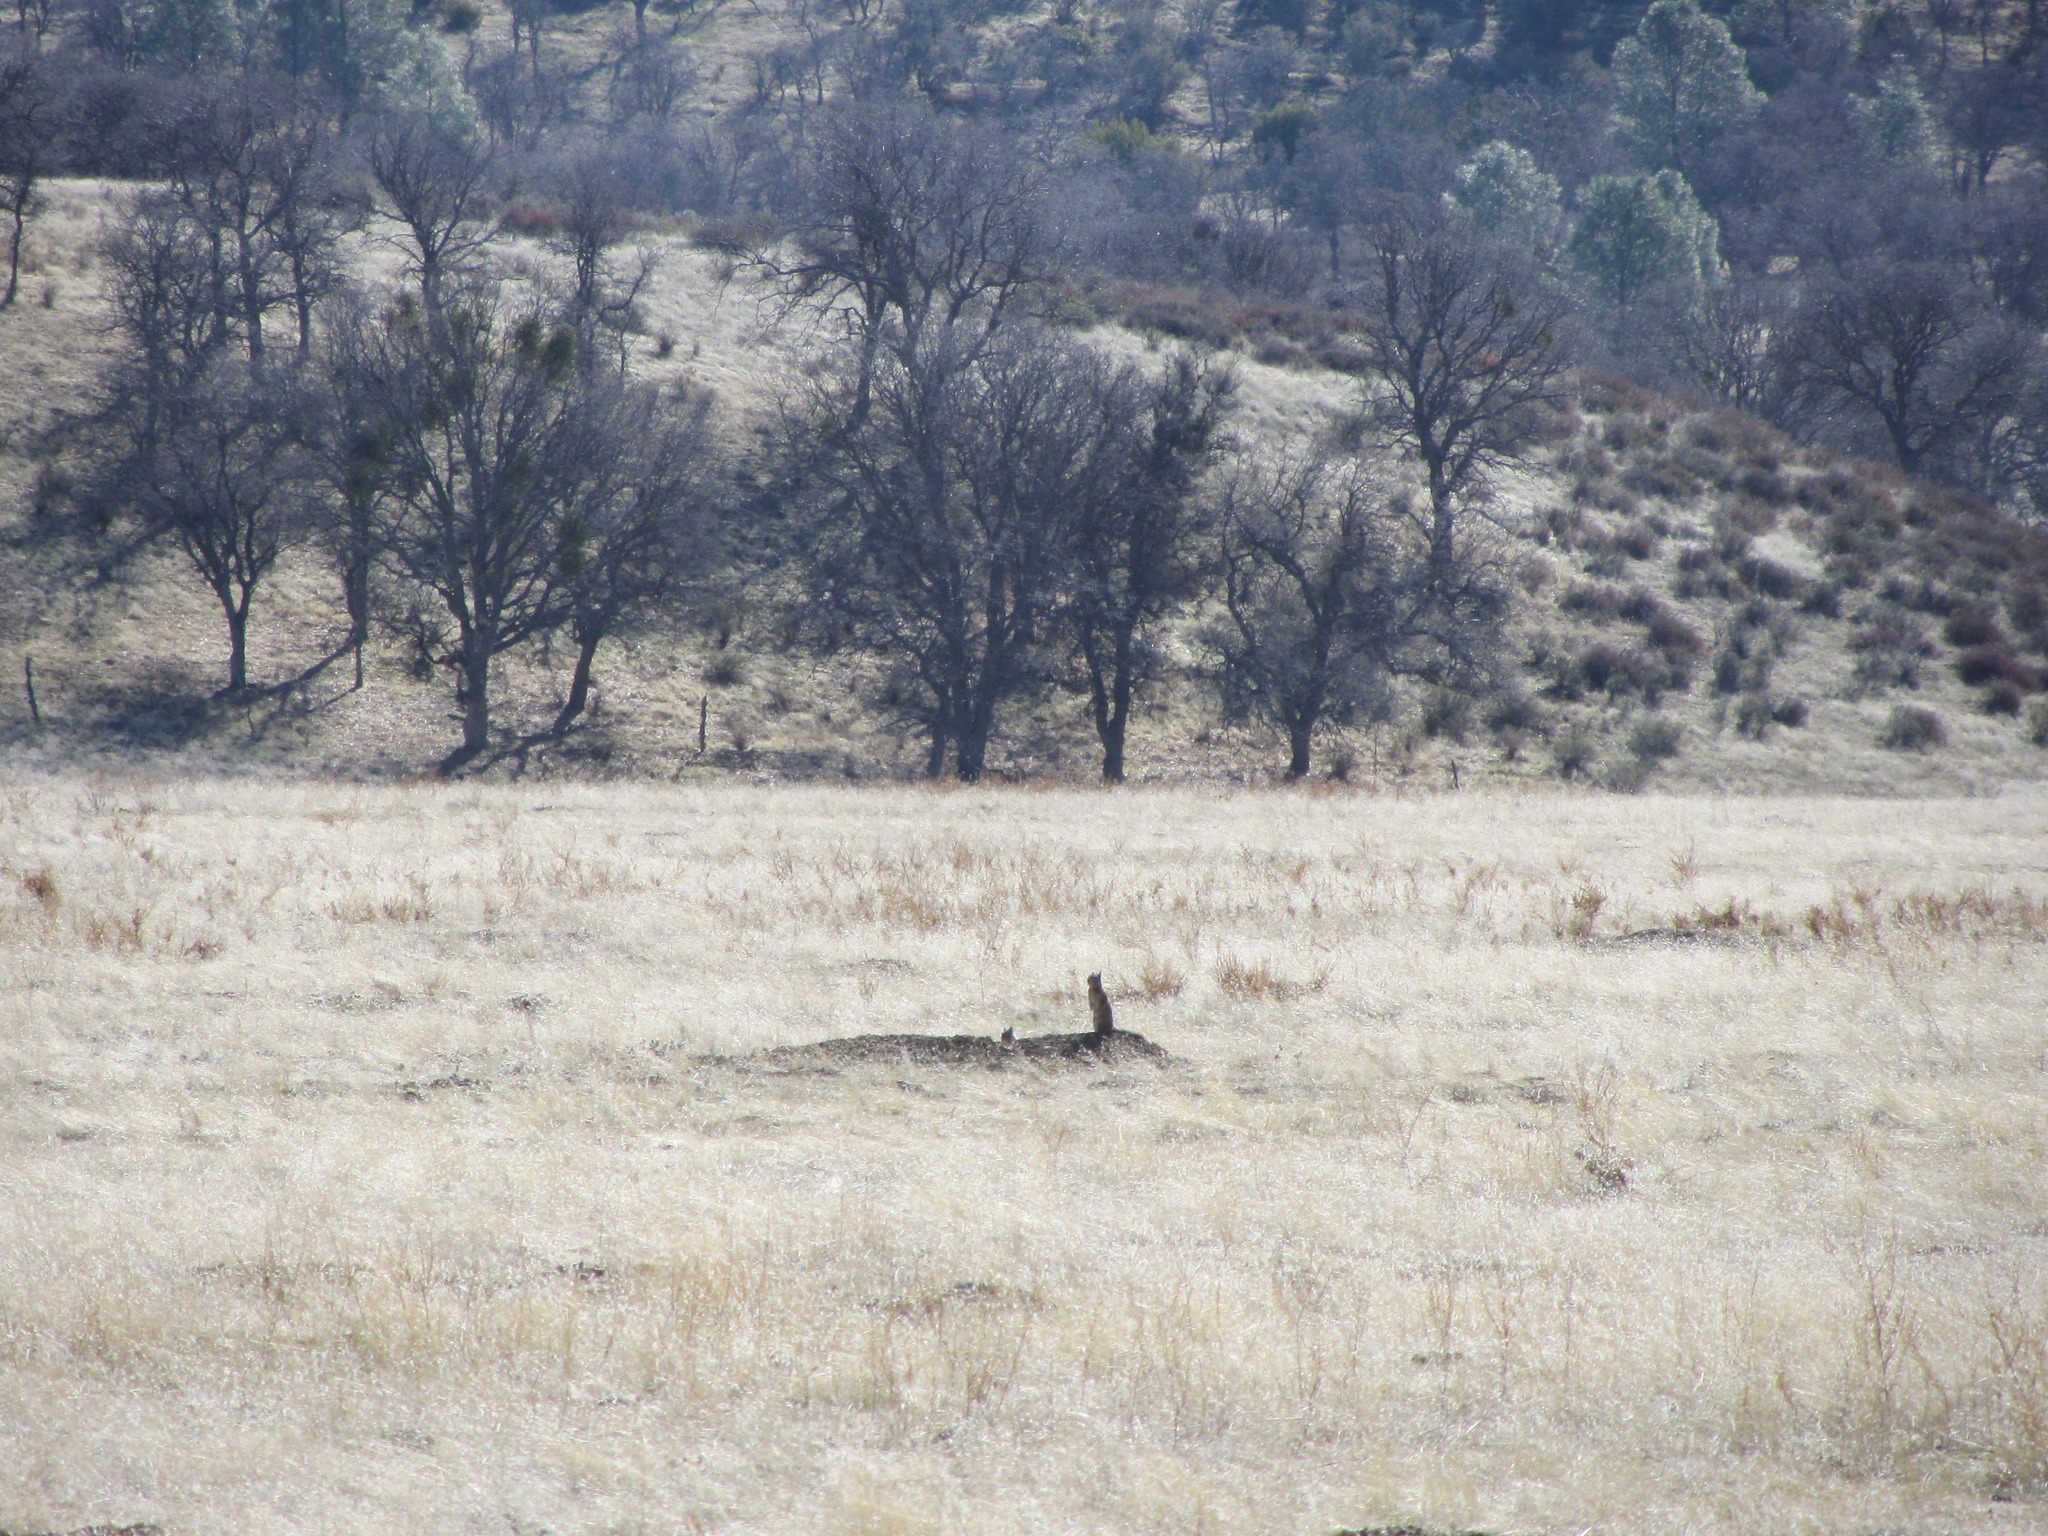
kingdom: Animalia
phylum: Chordata
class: Mammalia
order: Rodentia
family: Sciuridae
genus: Otospermophilus
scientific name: Otospermophilus beecheyi
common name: California ground squirrel
